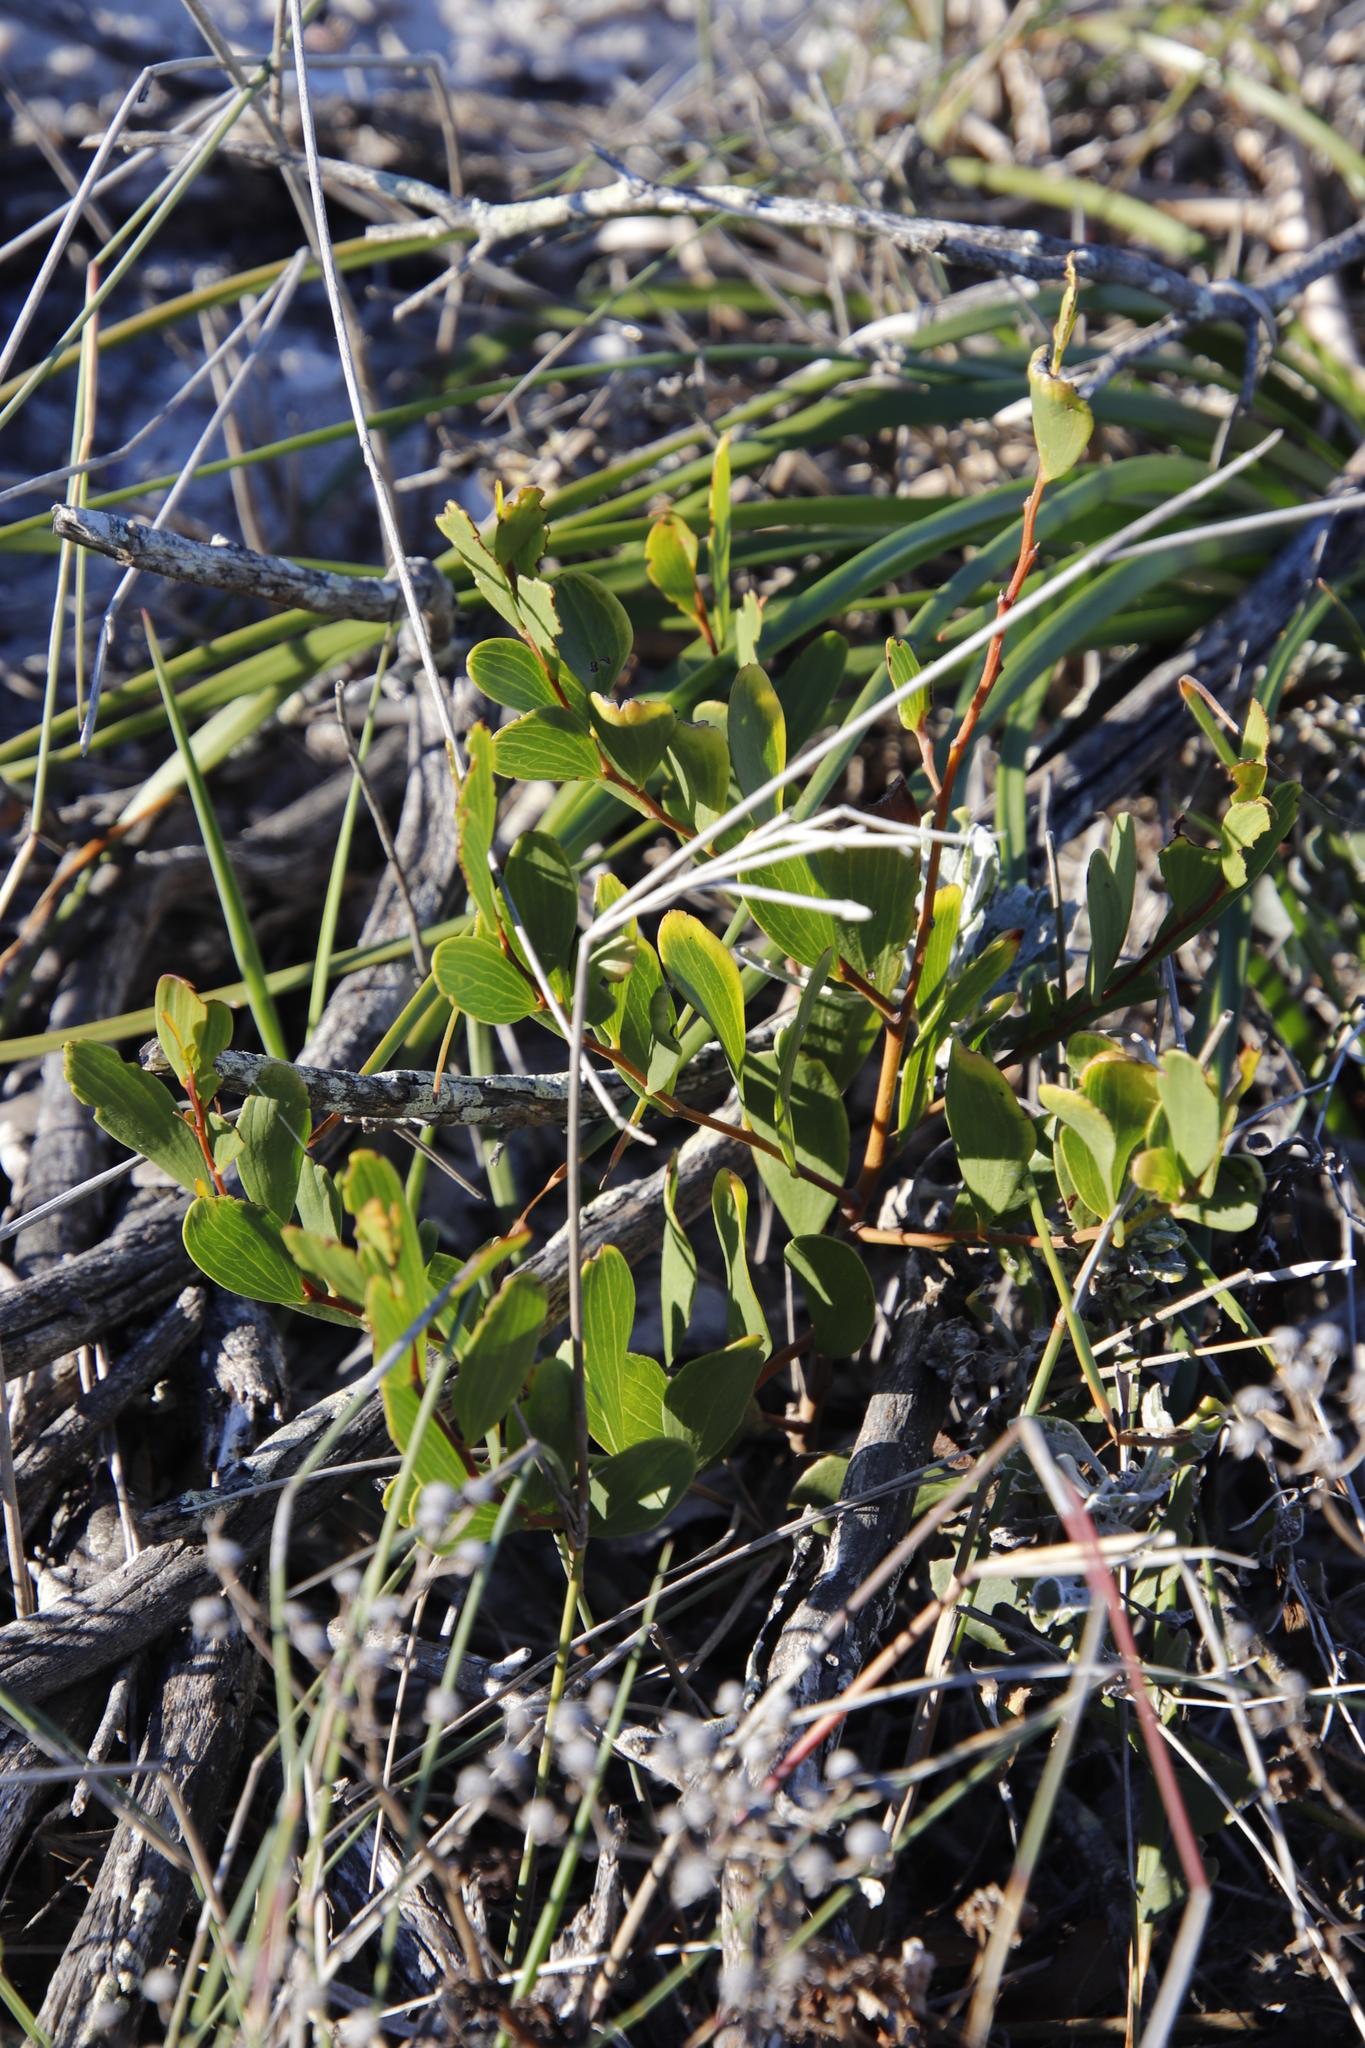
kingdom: Plantae
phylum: Tracheophyta
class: Magnoliopsida
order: Fabales
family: Fabaceae
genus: Acacia
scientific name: Acacia cyclops
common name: Coastal wattle
